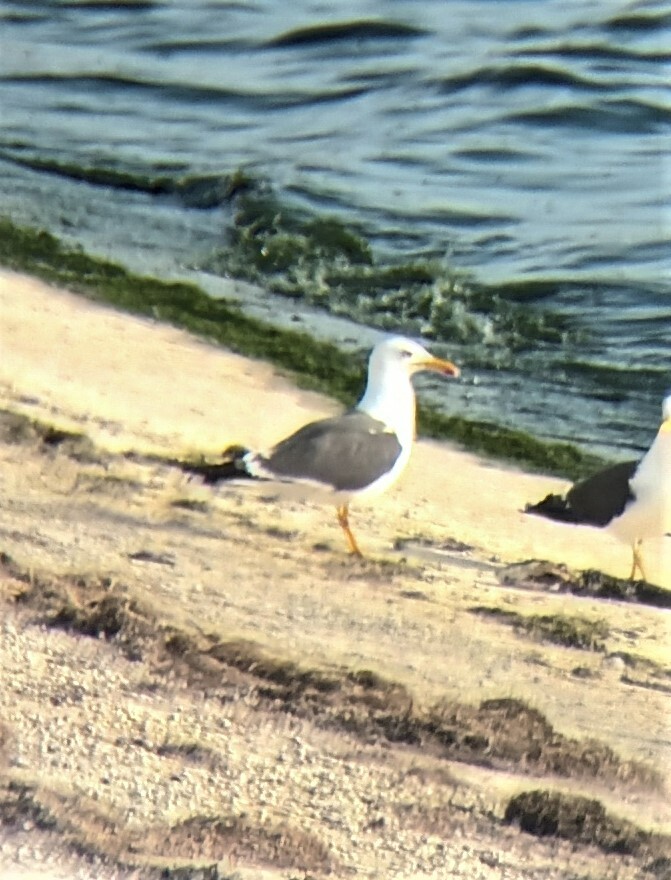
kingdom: Animalia
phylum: Chordata
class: Aves
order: Charadriiformes
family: Laridae
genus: Larus
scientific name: Larus fuscus
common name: Lesser black-backed gull
